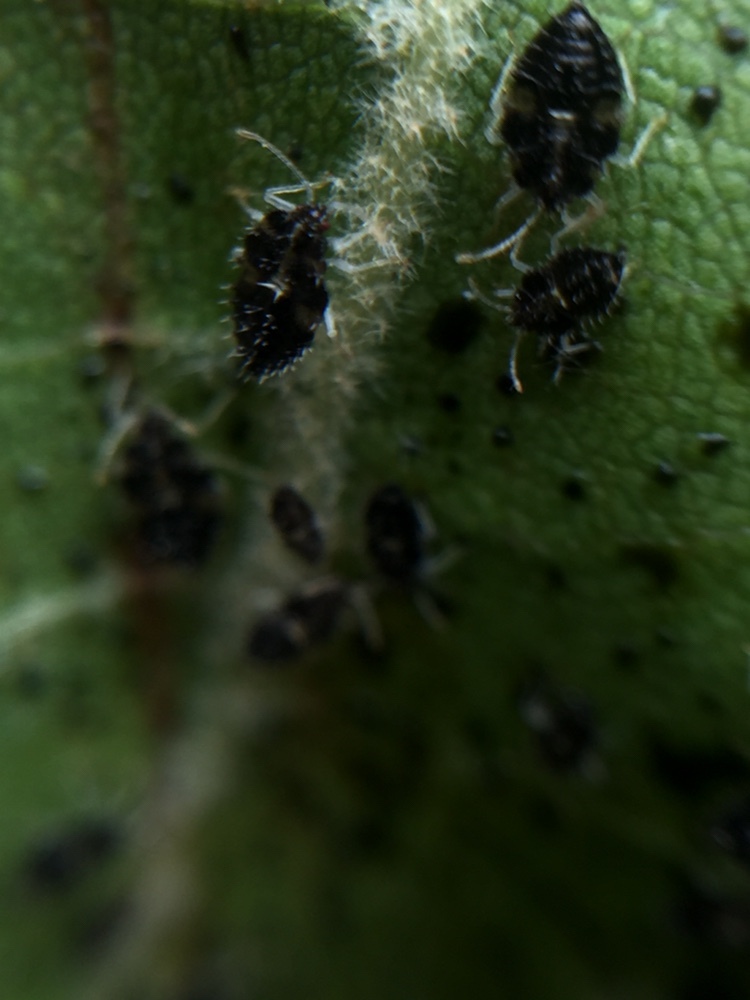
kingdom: Animalia
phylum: Arthropoda
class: Insecta
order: Hemiptera
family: Tingidae
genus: Corythucha
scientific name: Corythucha ciliata
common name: Sycamore lace bug
